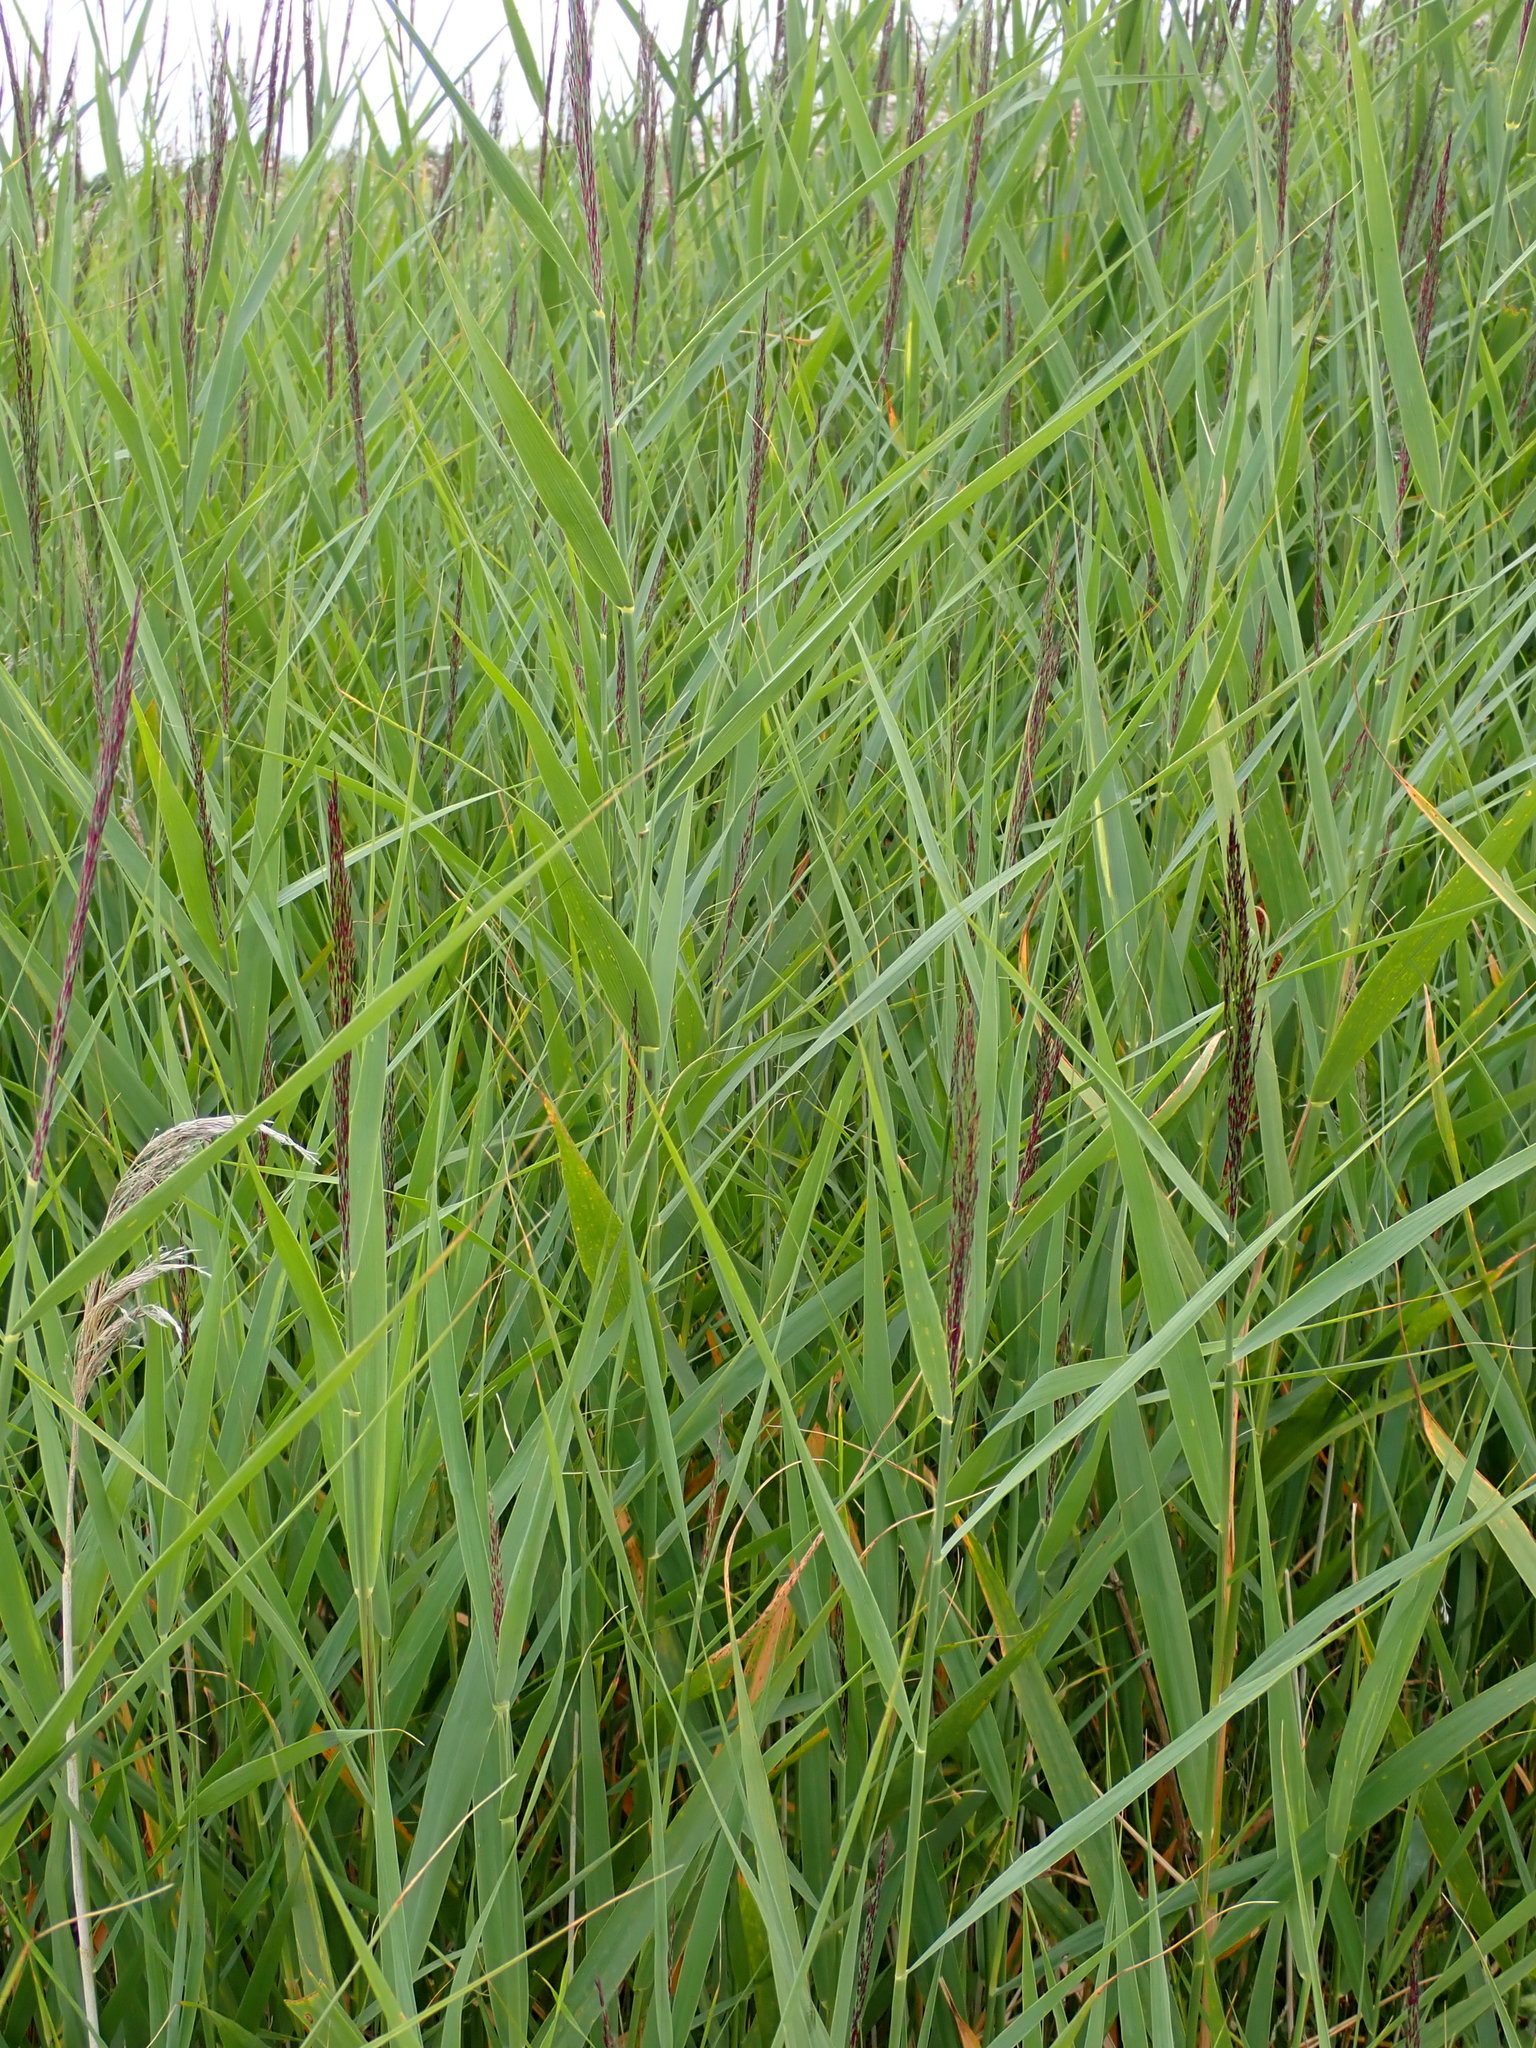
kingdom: Plantae
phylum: Tracheophyta
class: Liliopsida
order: Poales
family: Poaceae
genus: Phragmites
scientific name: Phragmites australis
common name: Common reed
